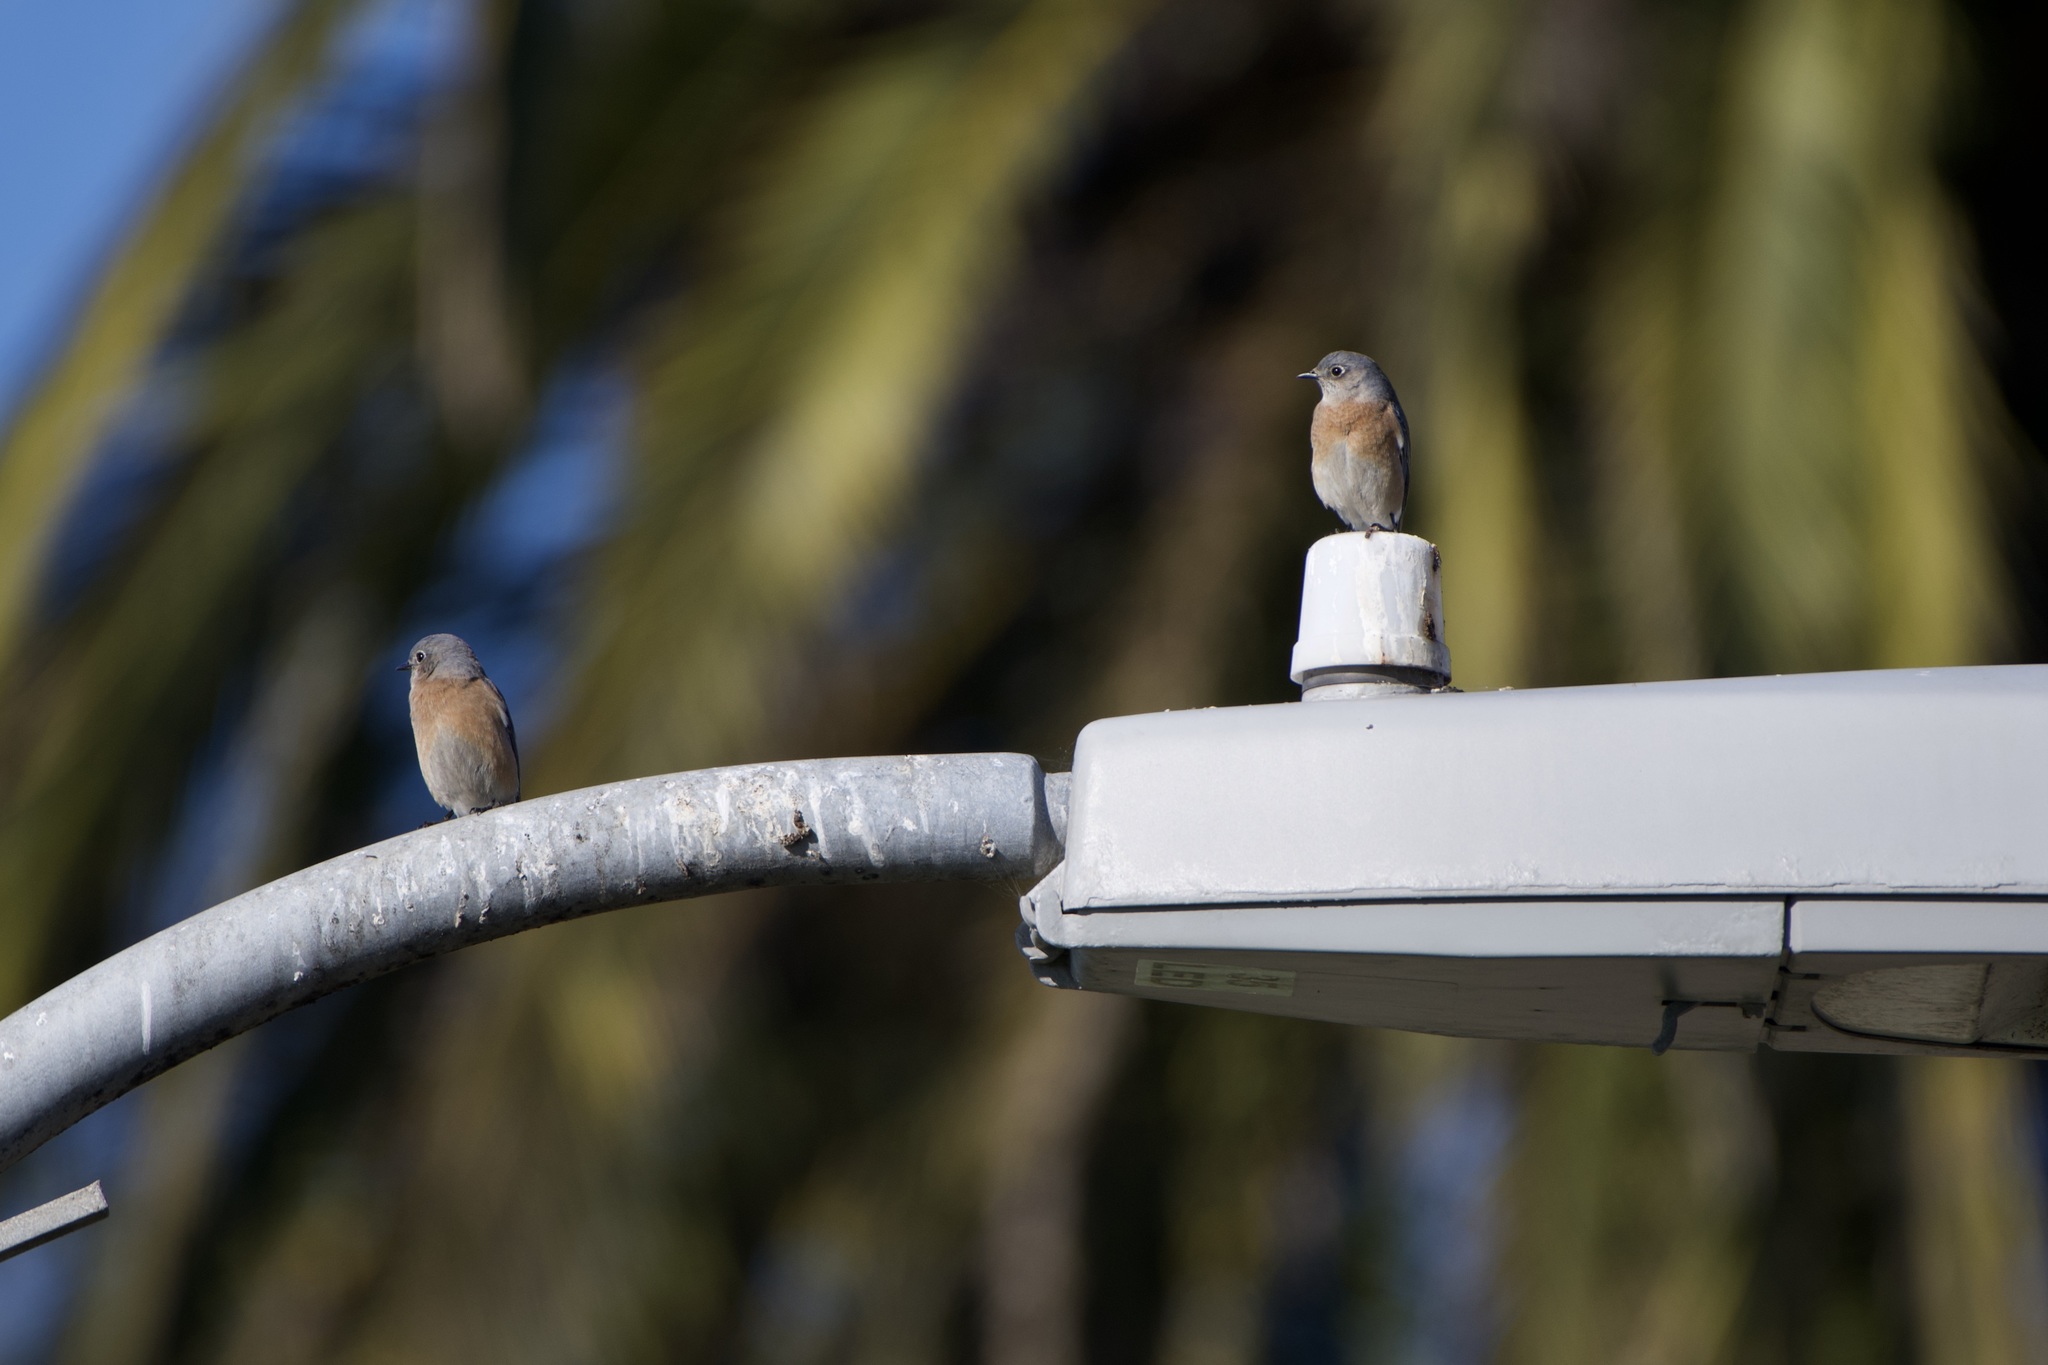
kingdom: Animalia
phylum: Chordata
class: Aves
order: Passeriformes
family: Turdidae
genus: Sialia
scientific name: Sialia mexicana
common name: Western bluebird
